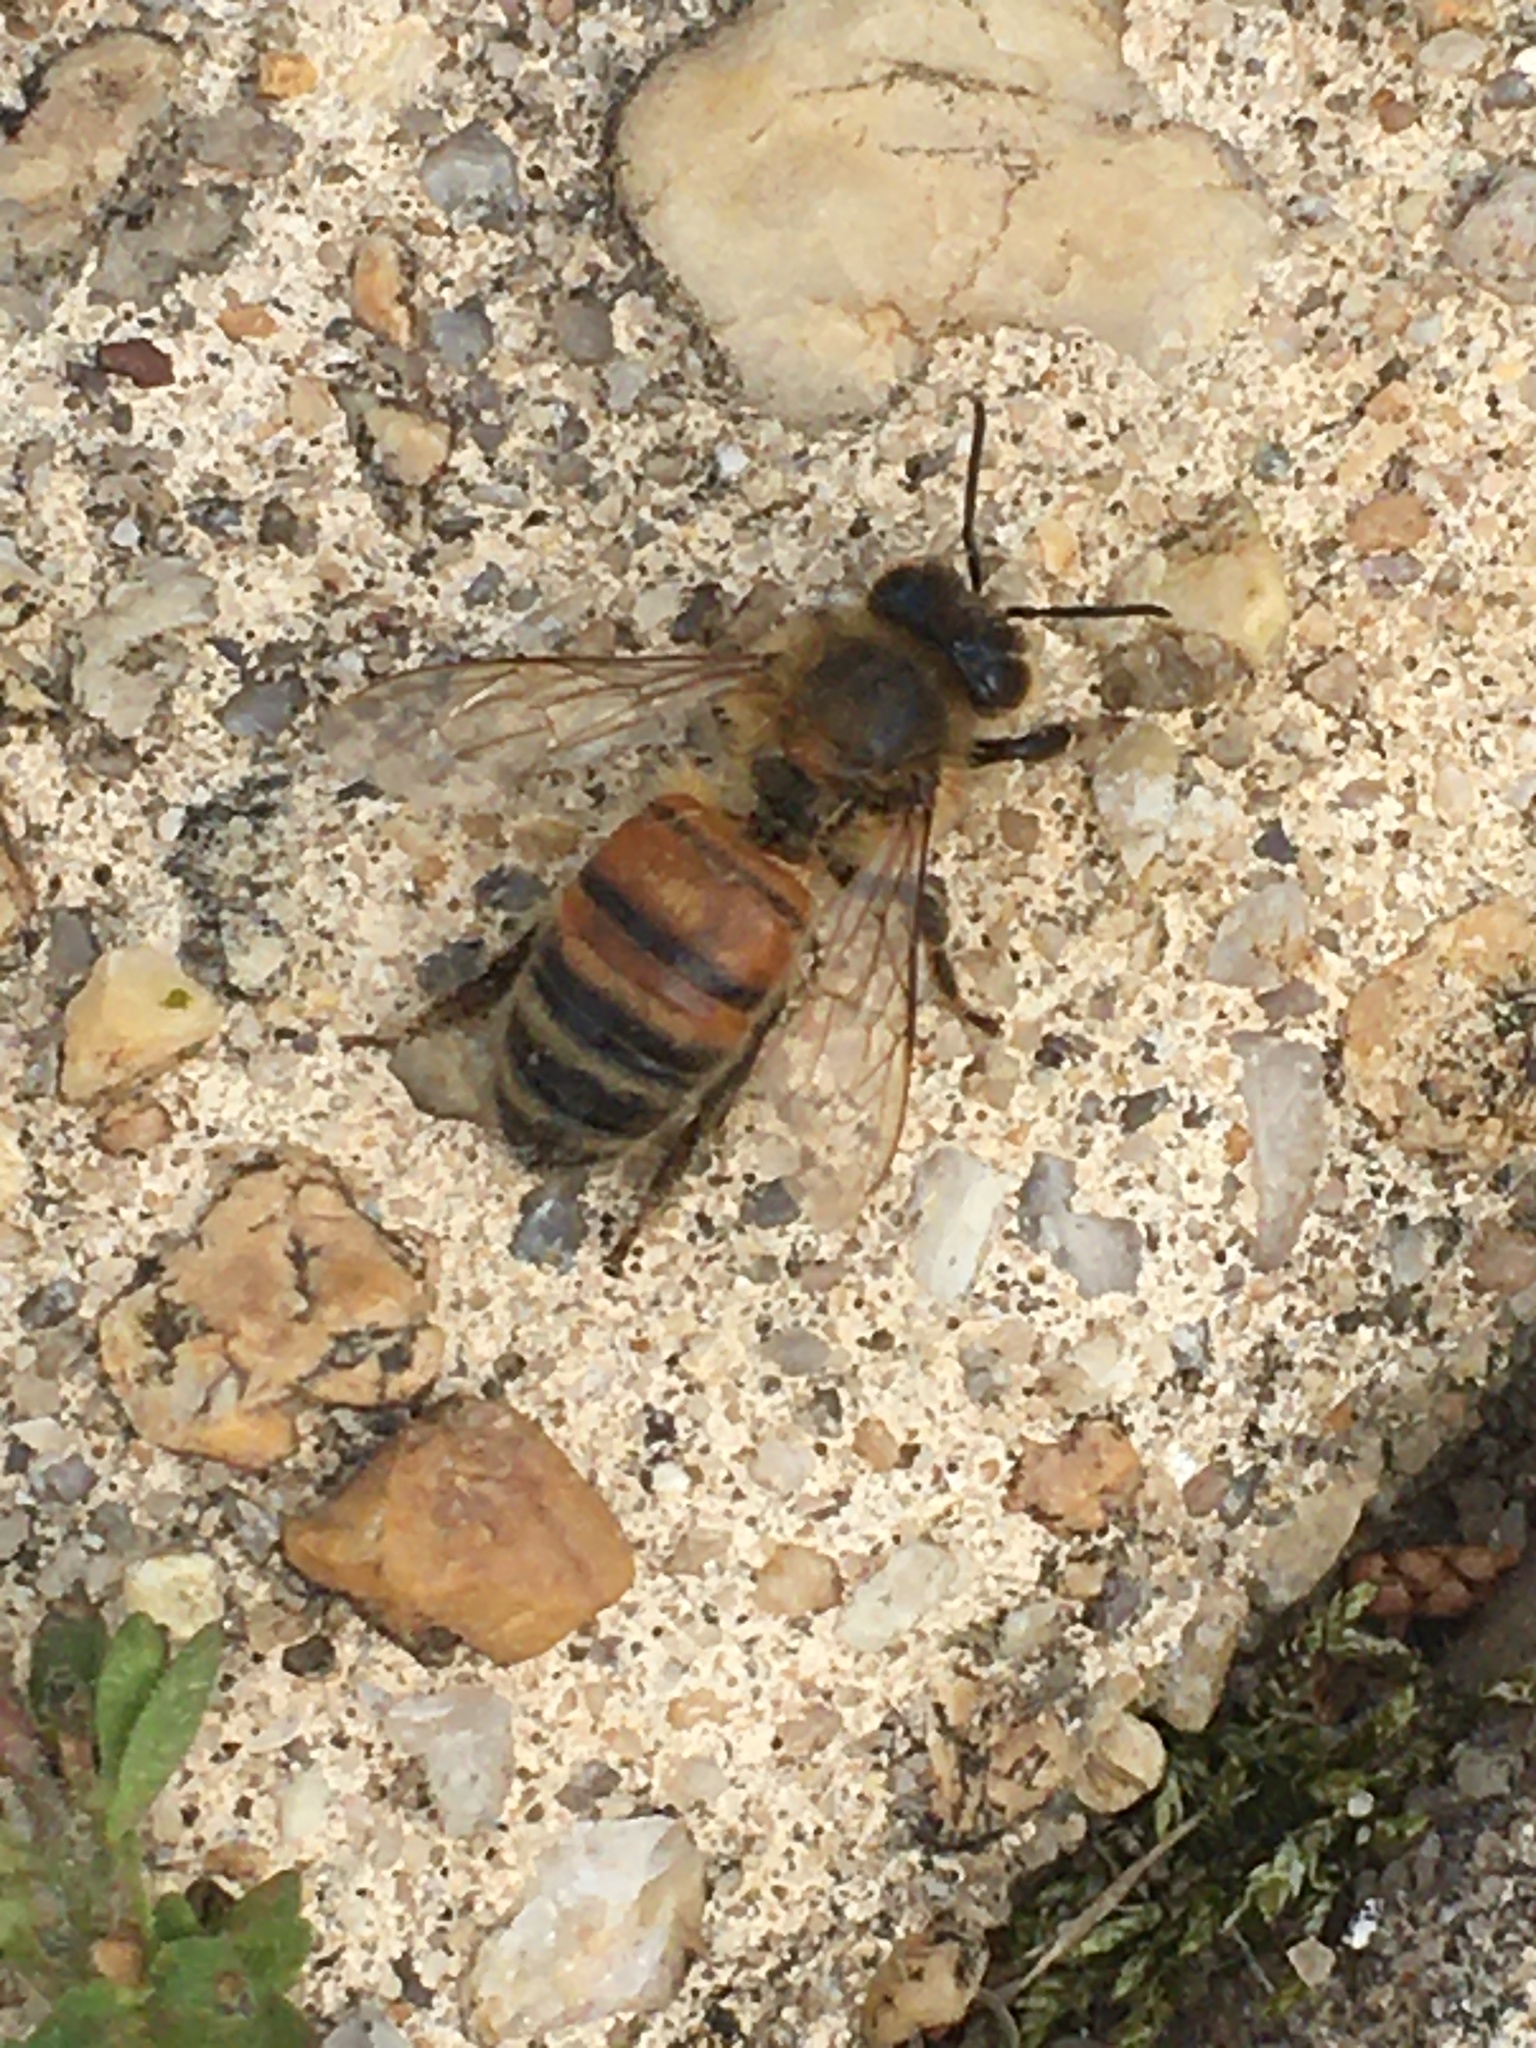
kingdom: Animalia
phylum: Arthropoda
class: Insecta
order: Hymenoptera
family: Apidae
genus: Apis
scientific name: Apis mellifera
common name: Honey bee
